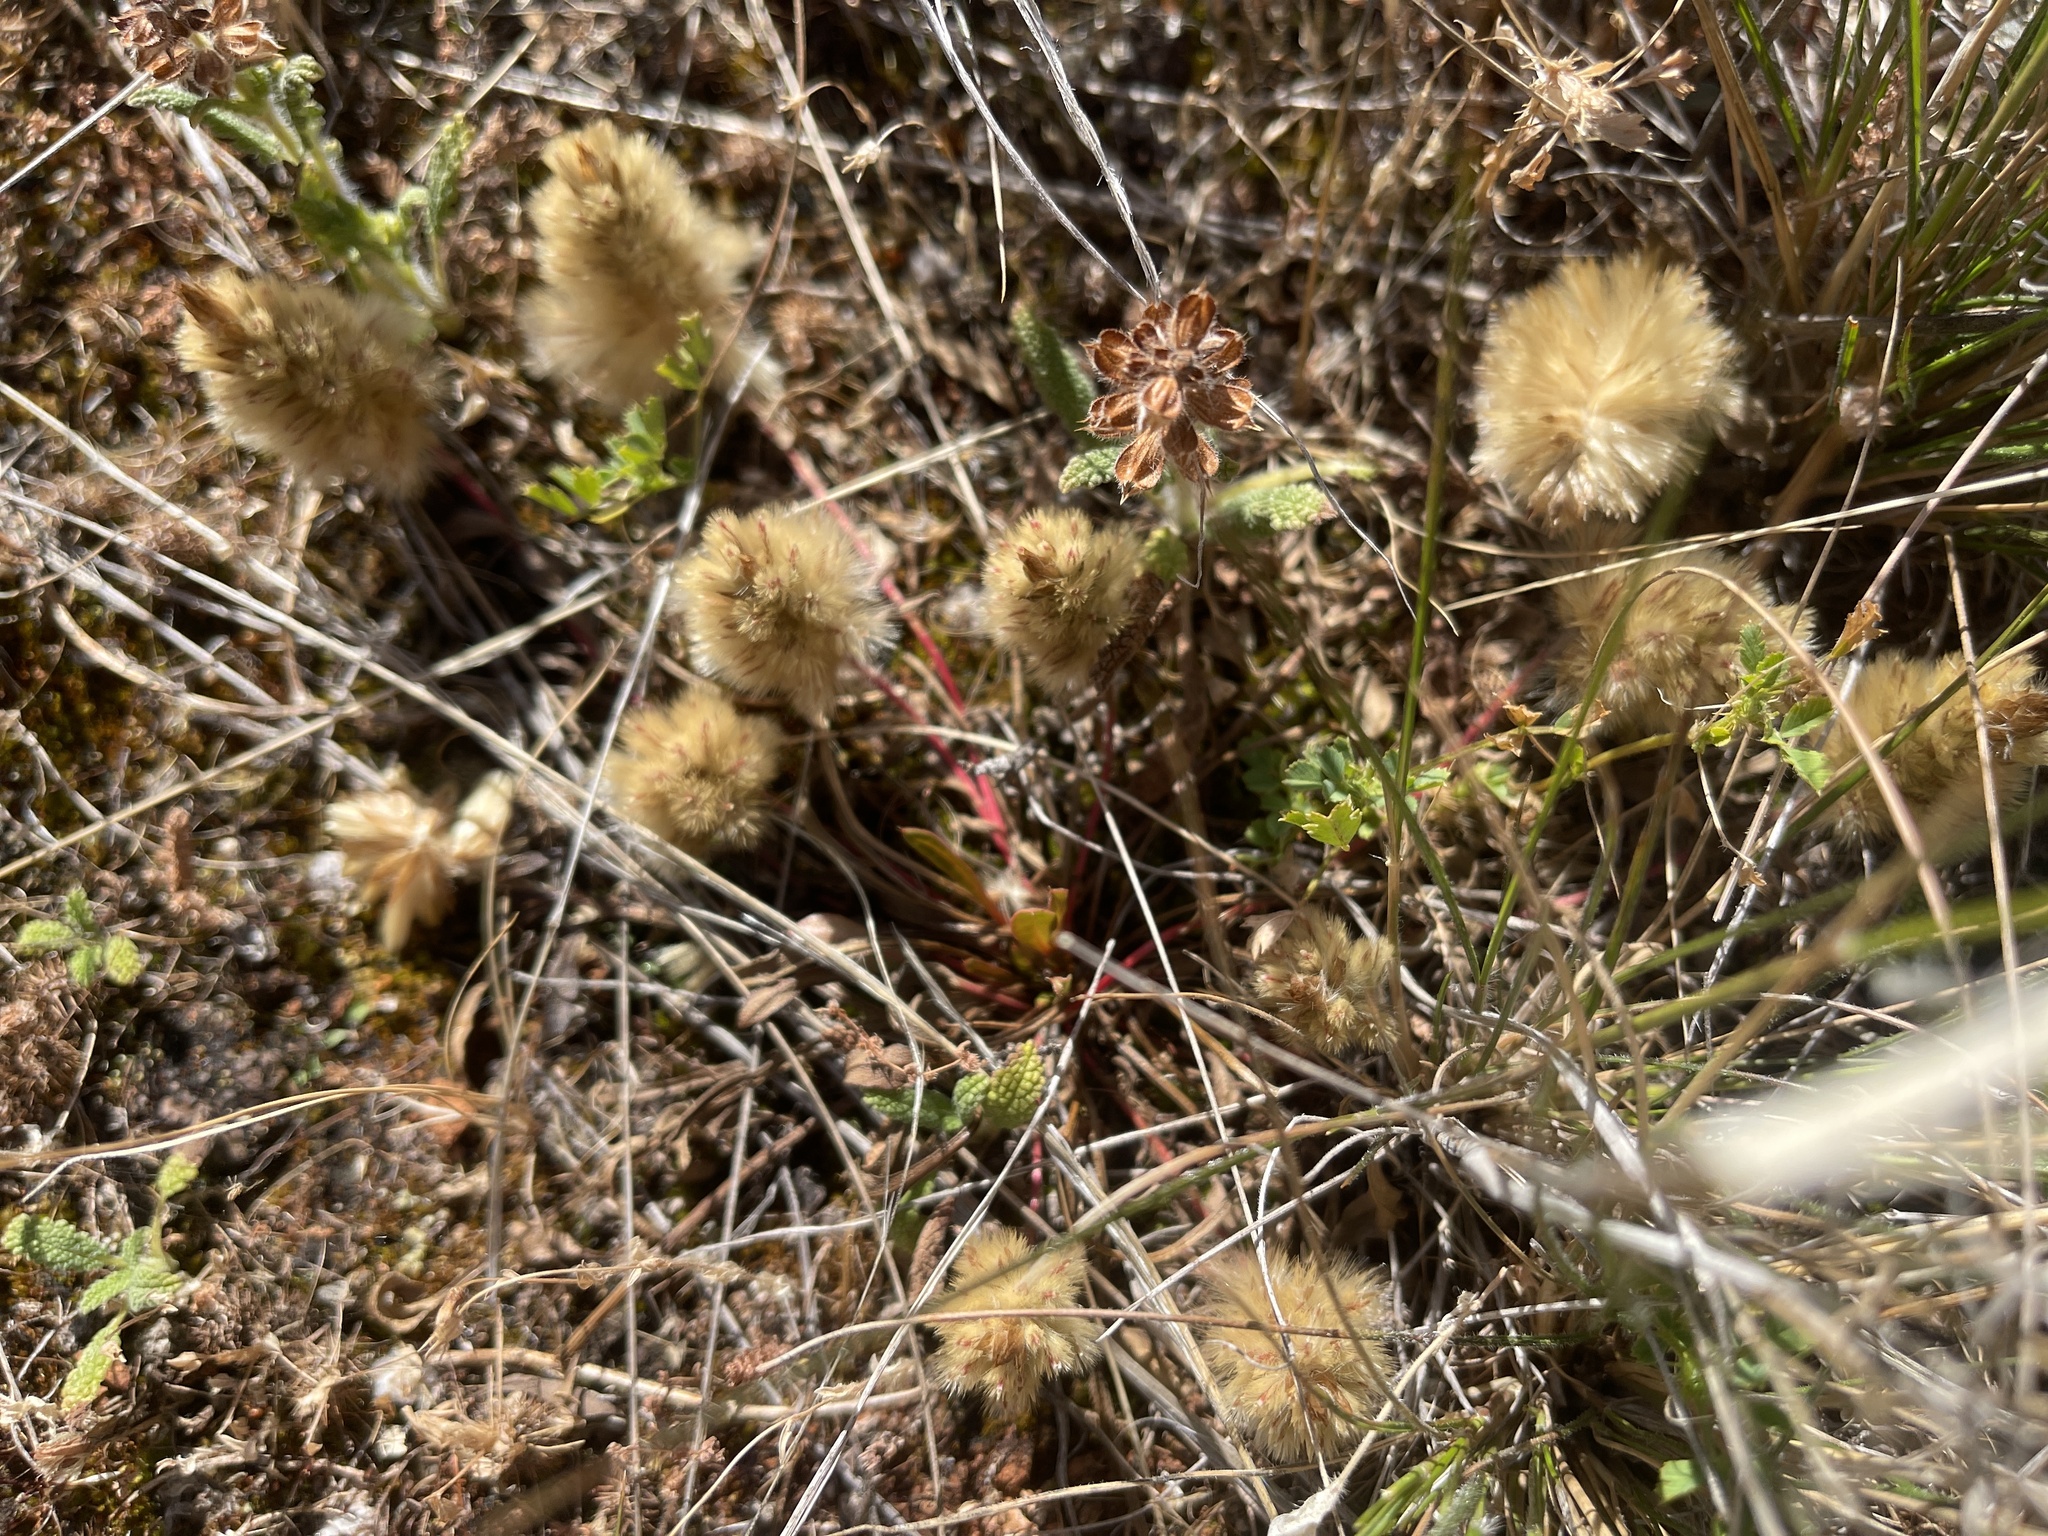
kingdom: Plantae
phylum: Tracheophyta
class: Magnoliopsida
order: Caryophyllales
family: Amaranthaceae
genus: Ptilotus
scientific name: Ptilotus spathulatus
